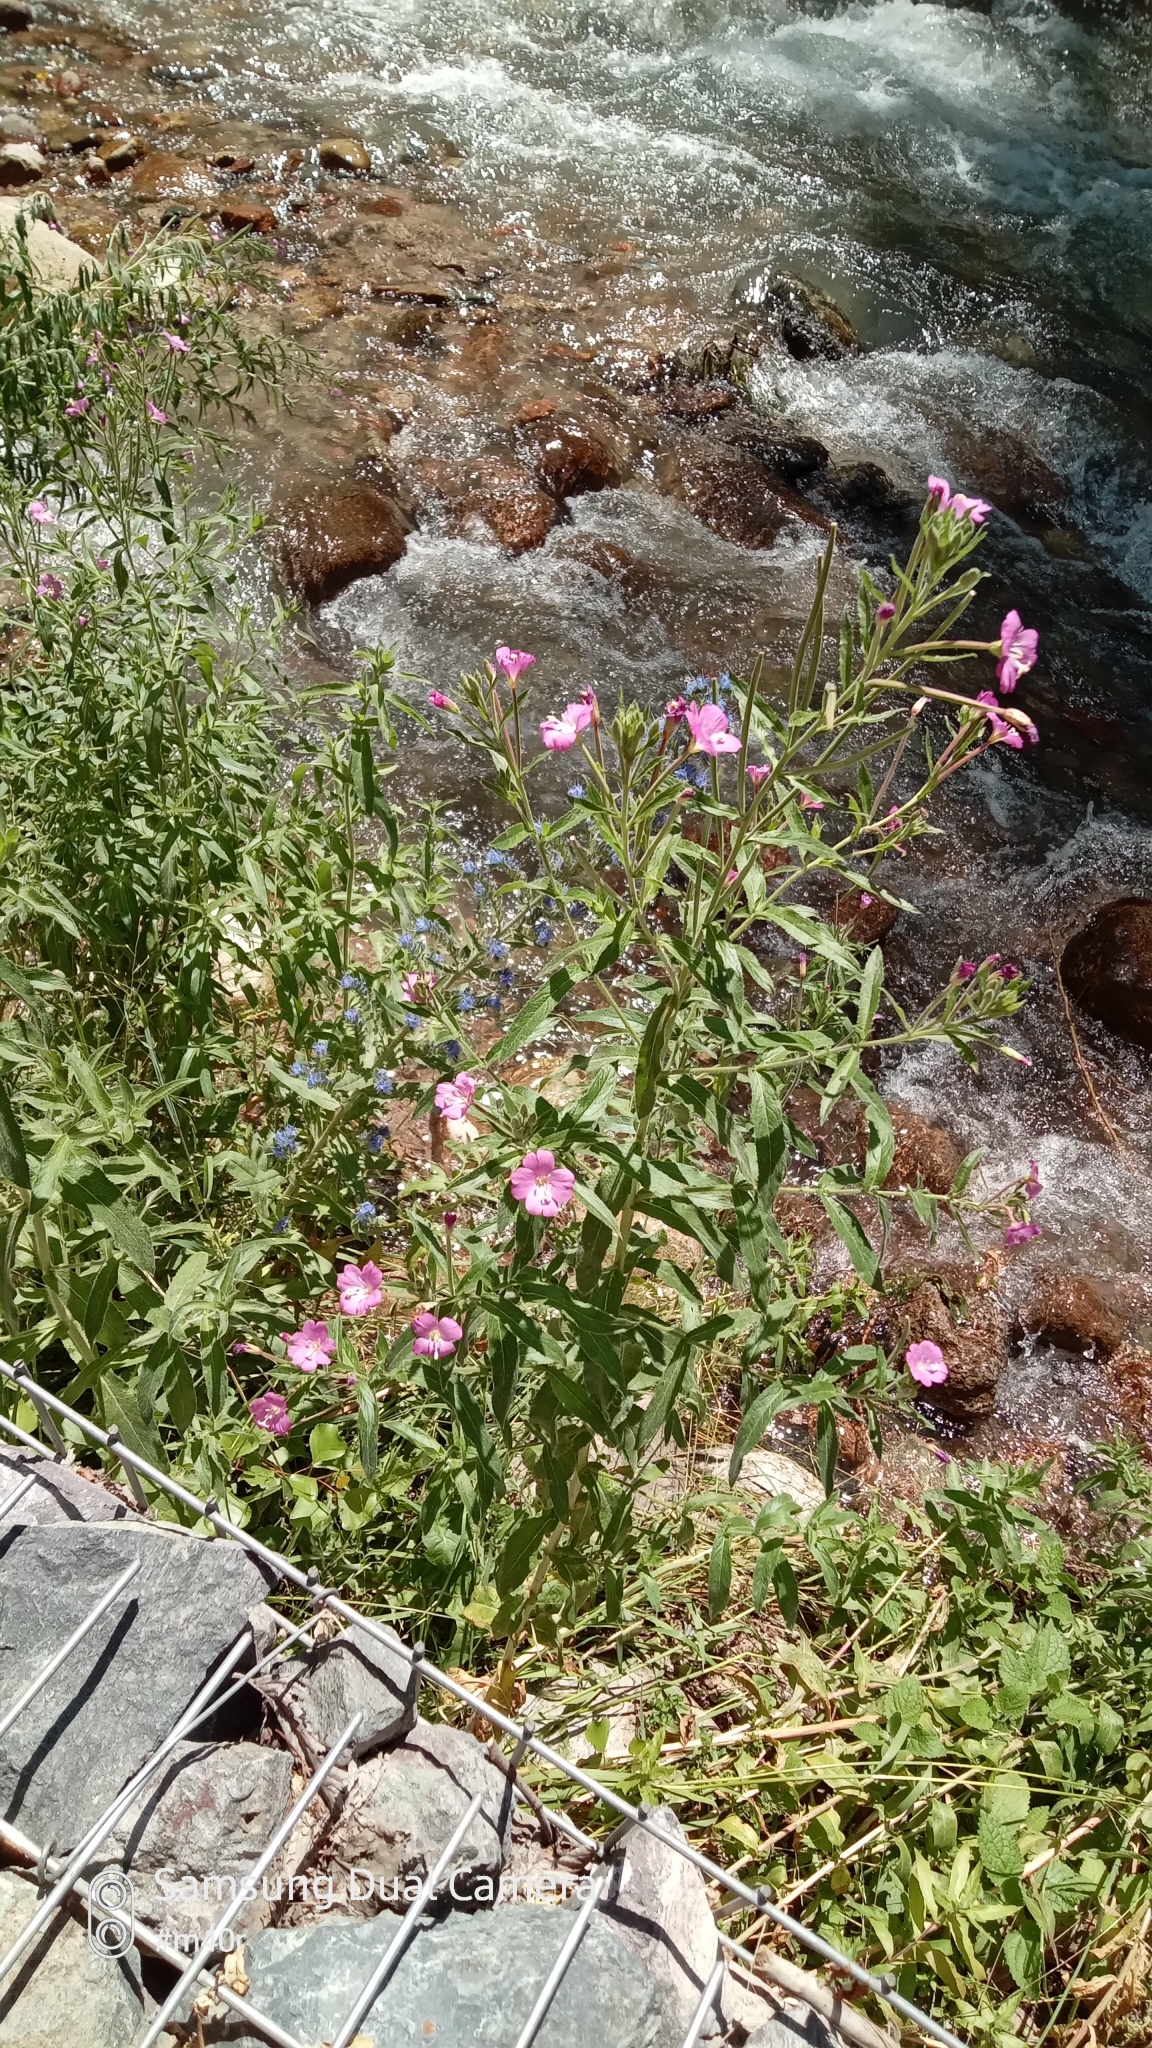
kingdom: Plantae
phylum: Tracheophyta
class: Magnoliopsida
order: Myrtales
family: Onagraceae
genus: Epilobium
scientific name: Epilobium hirsutum
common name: Great willowherb
